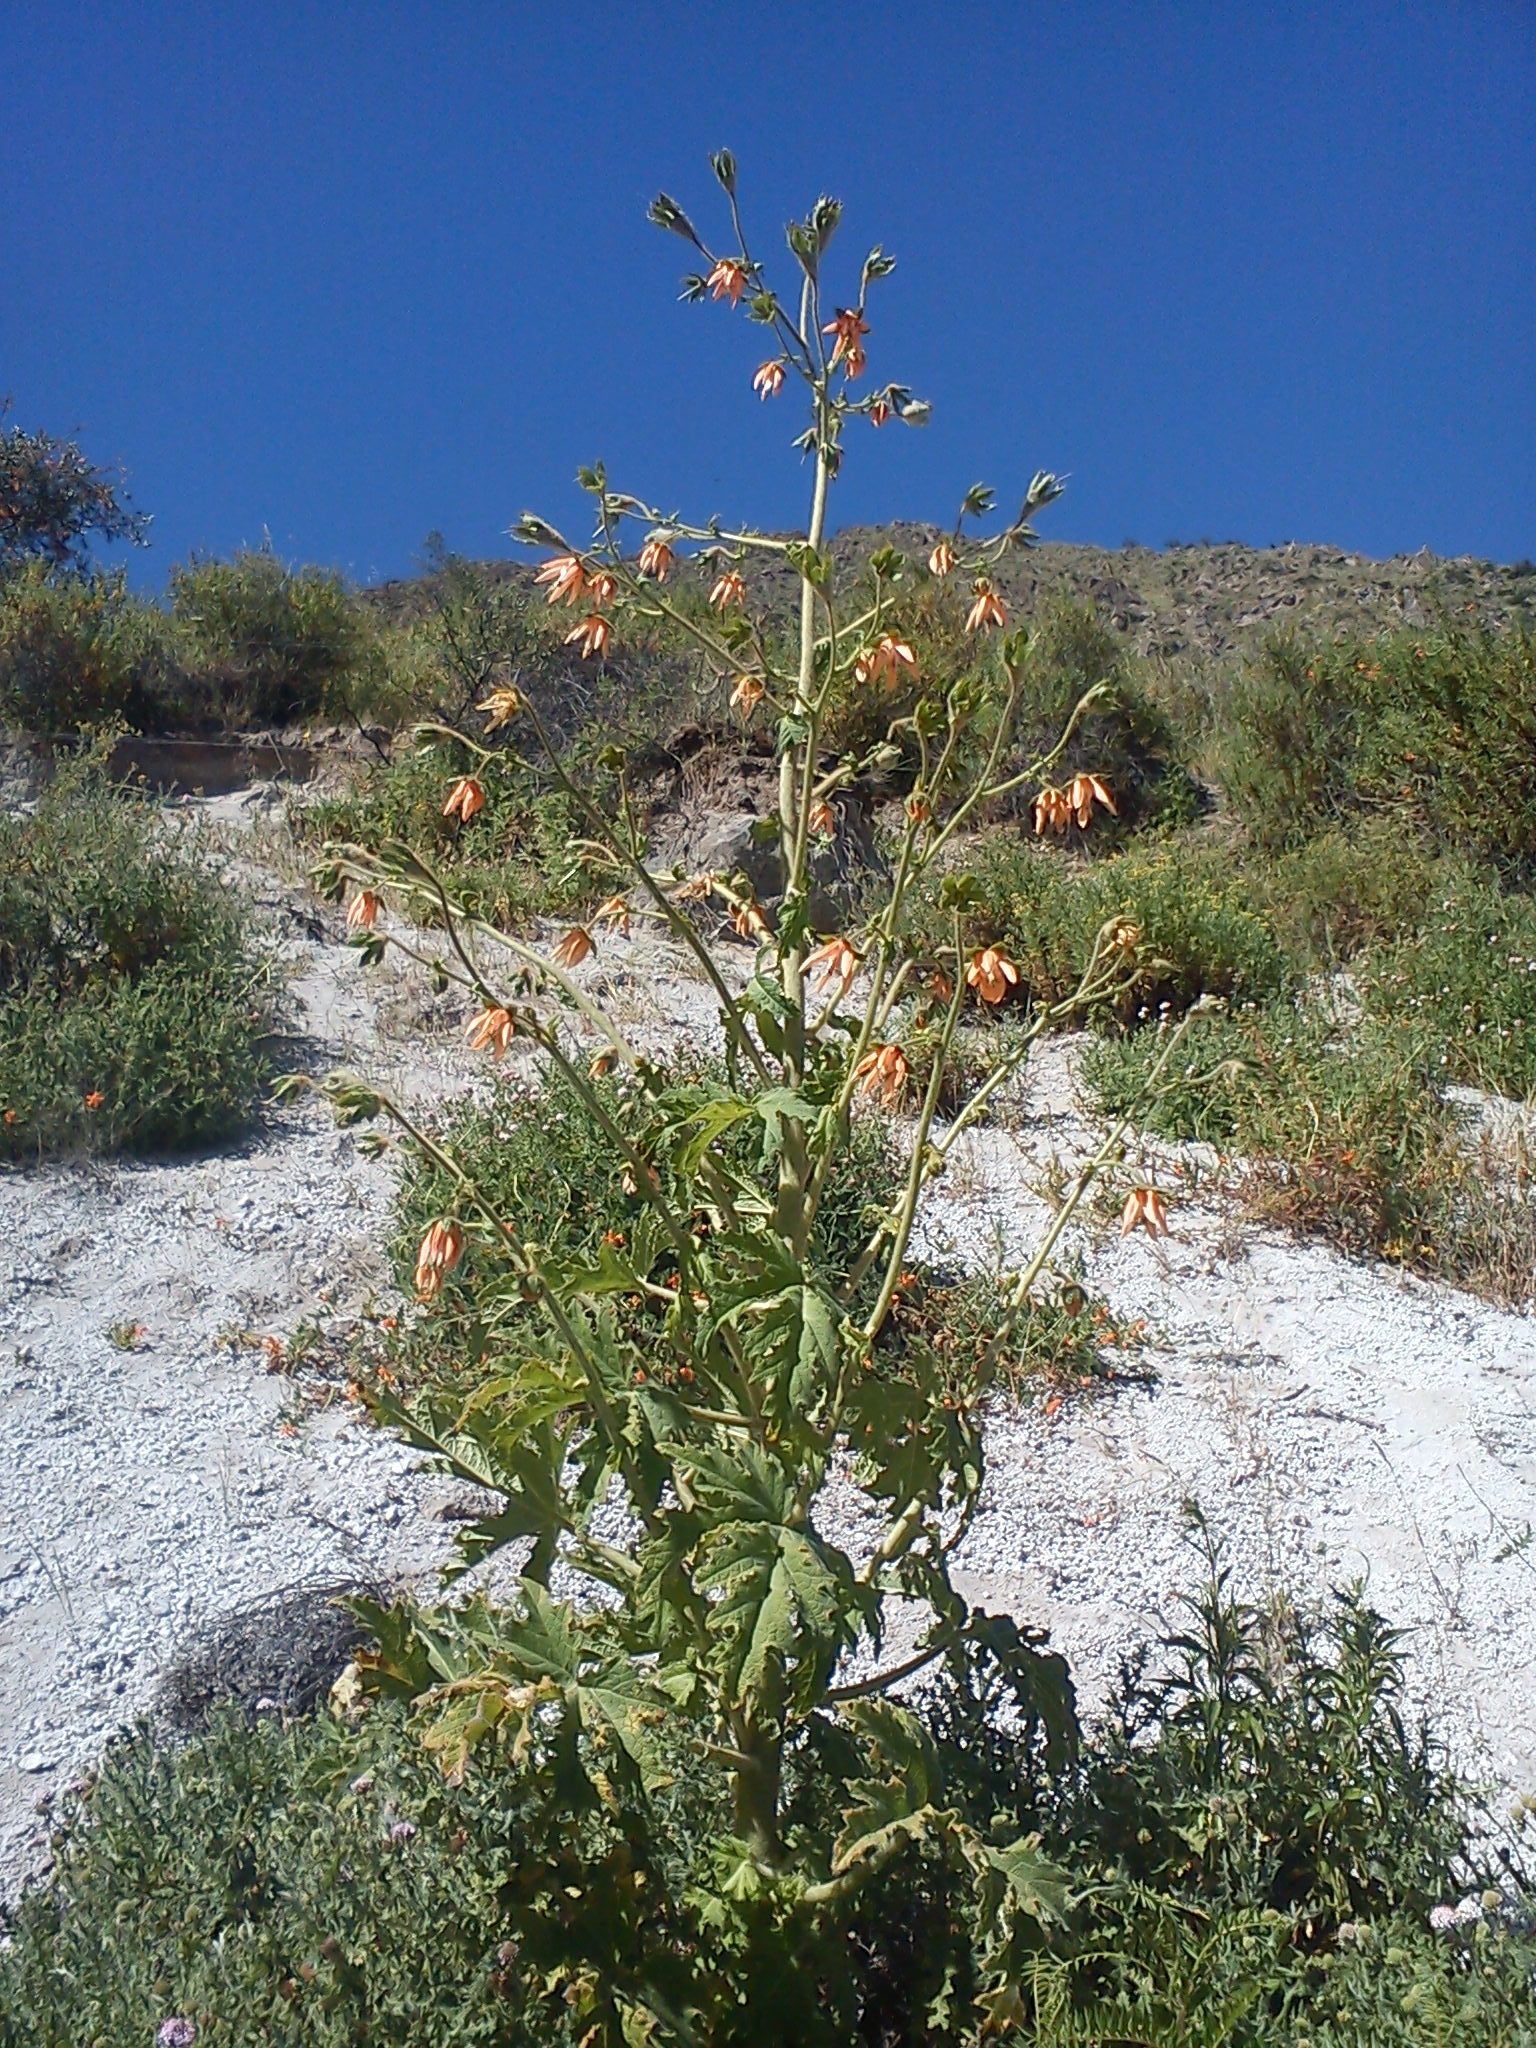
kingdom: Plantae
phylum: Tracheophyta
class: Magnoliopsida
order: Cornales
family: Loasaceae
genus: Nasa
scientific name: Nasa macrophylla
